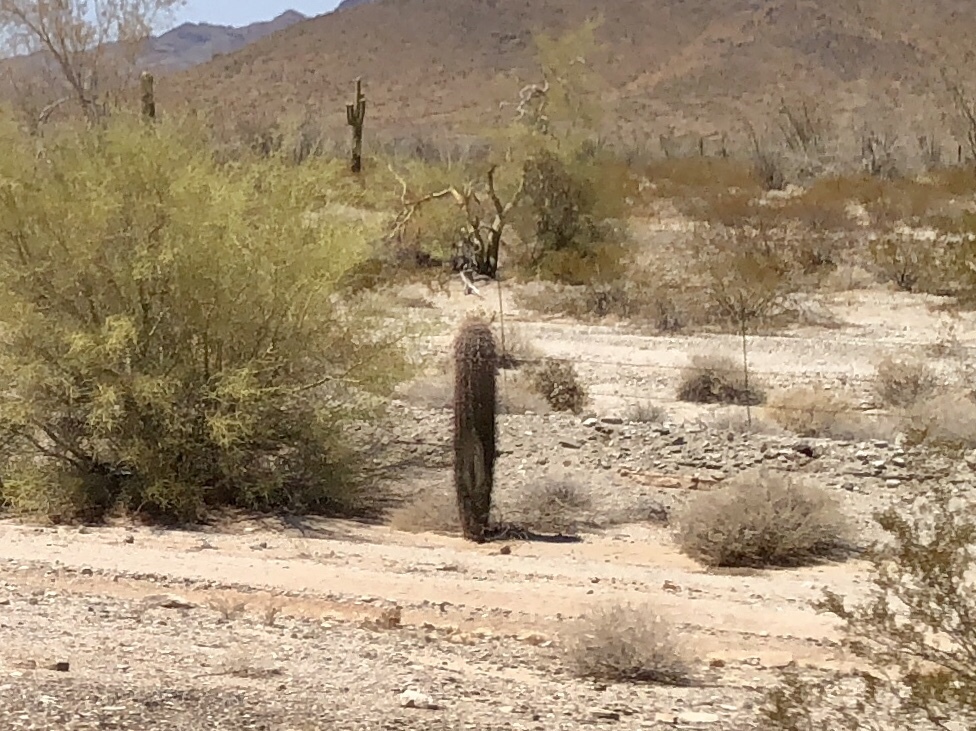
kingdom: Plantae
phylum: Tracheophyta
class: Magnoliopsida
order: Caryophyllales
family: Cactaceae
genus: Carnegiea
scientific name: Carnegiea gigantea
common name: Saguaro
